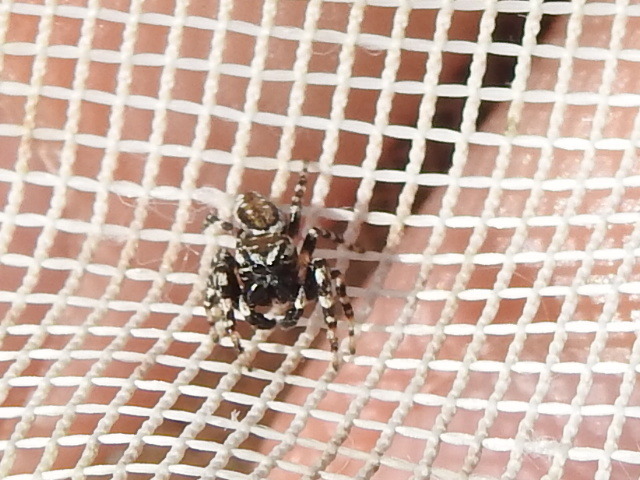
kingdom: Animalia
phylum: Arthropoda
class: Arachnida
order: Araneae
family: Salticidae
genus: Pelegrina
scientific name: Pelegrina galathea
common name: Jumping spiders
